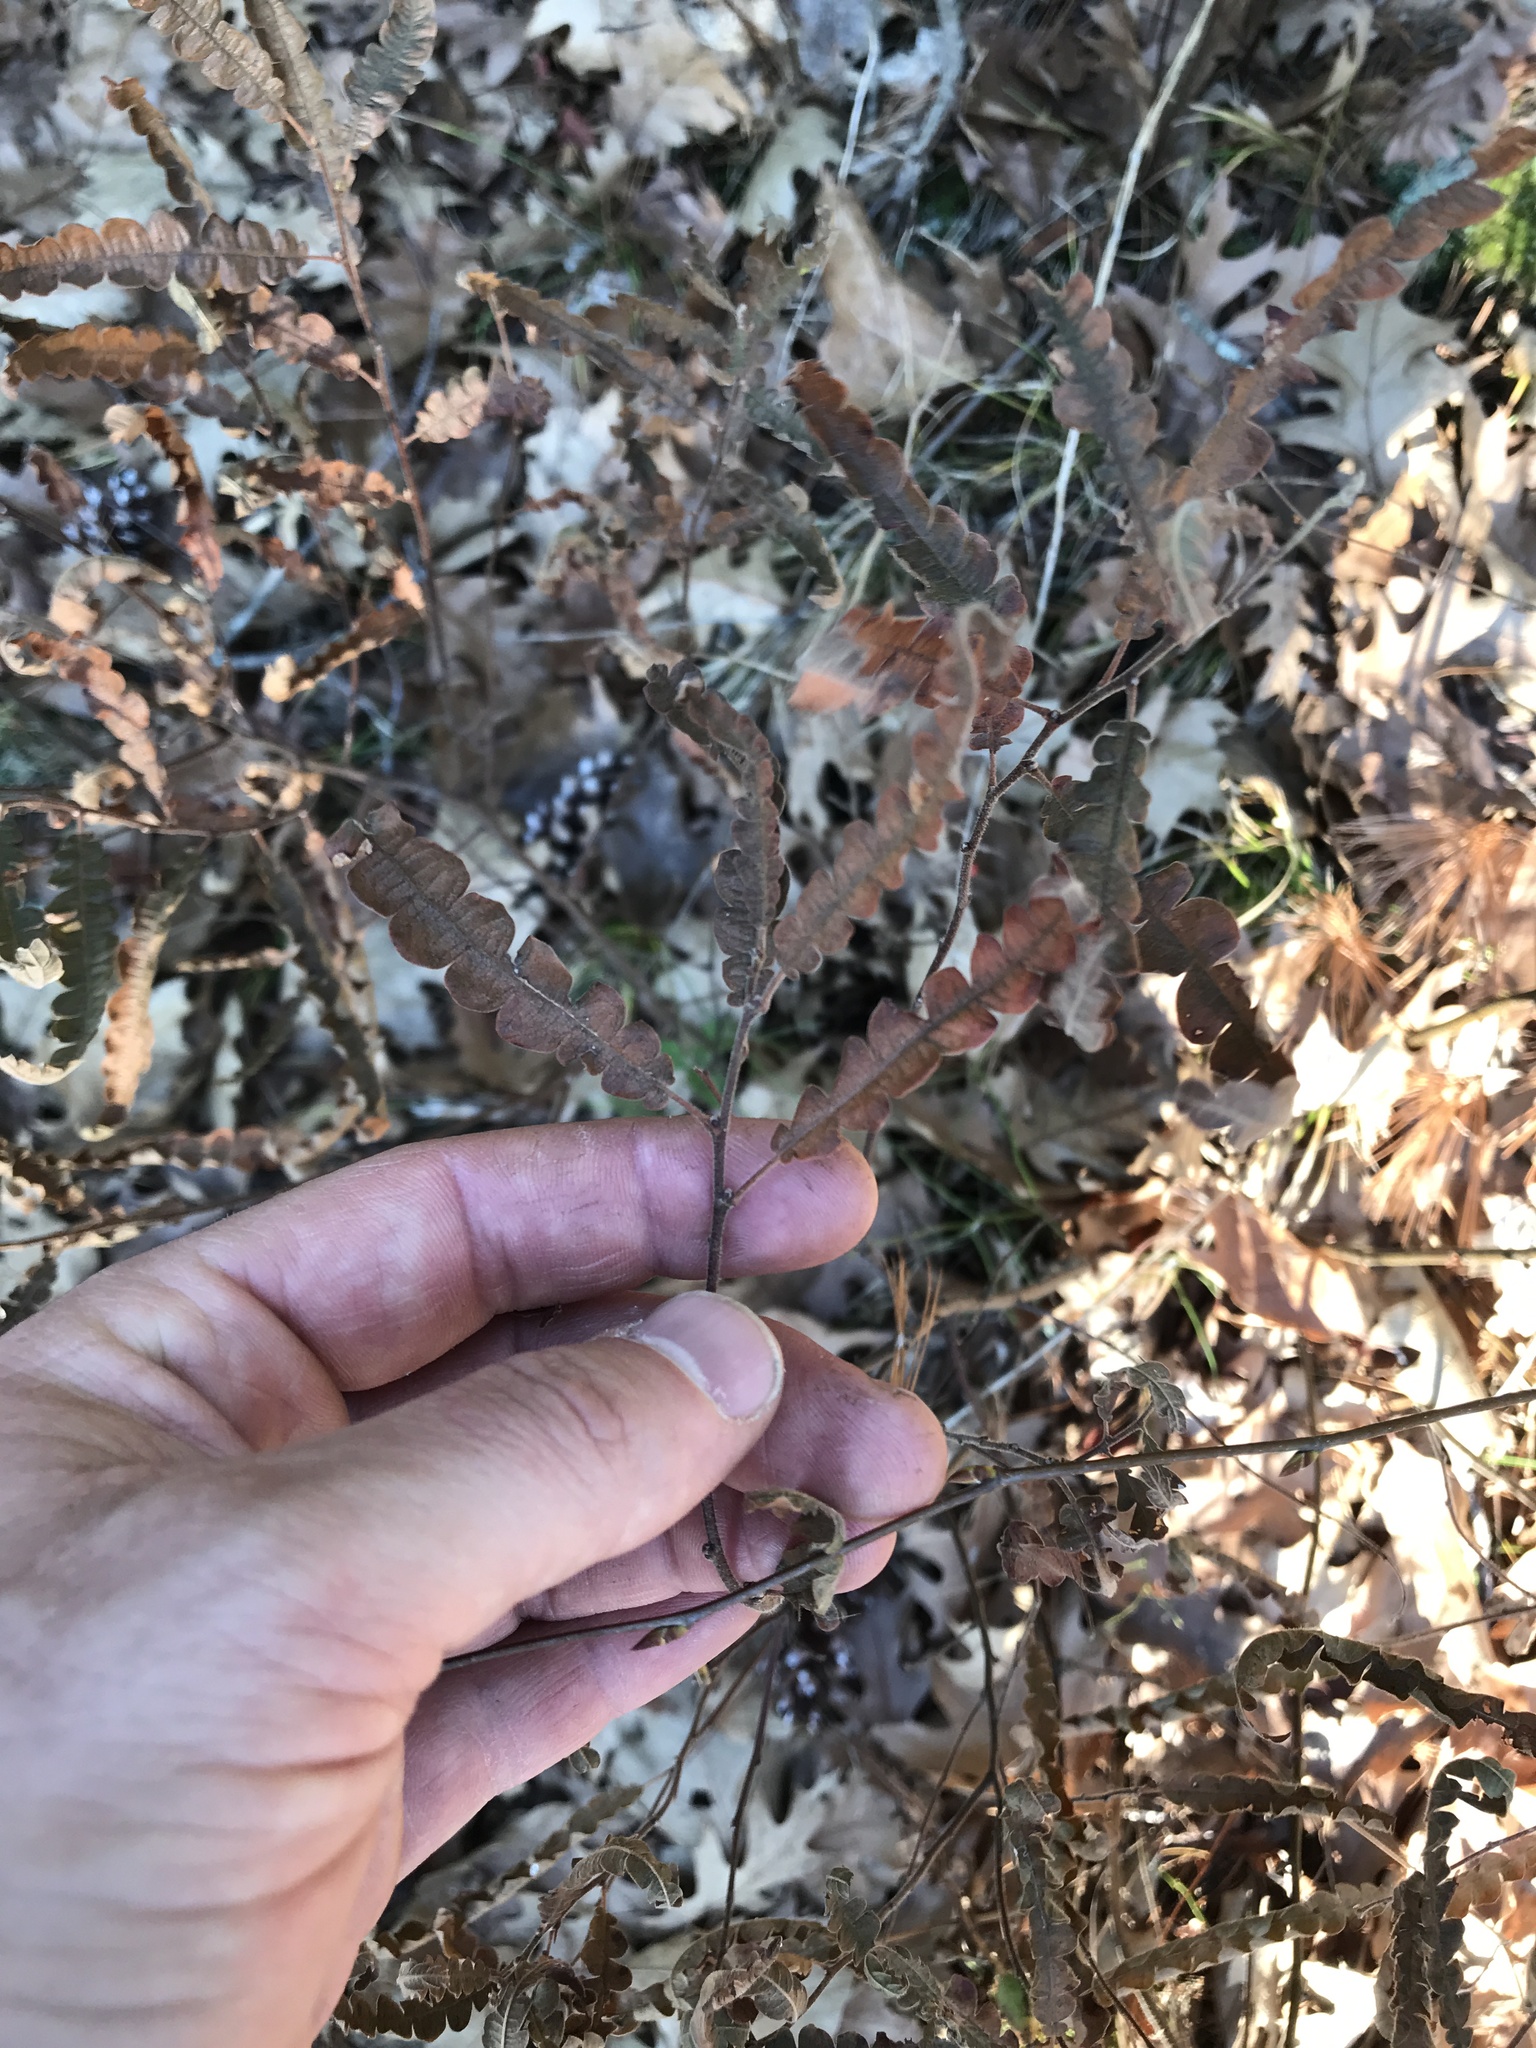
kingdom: Plantae
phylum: Tracheophyta
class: Magnoliopsida
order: Fagales
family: Myricaceae
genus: Comptonia
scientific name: Comptonia peregrina
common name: Sweet-fern
